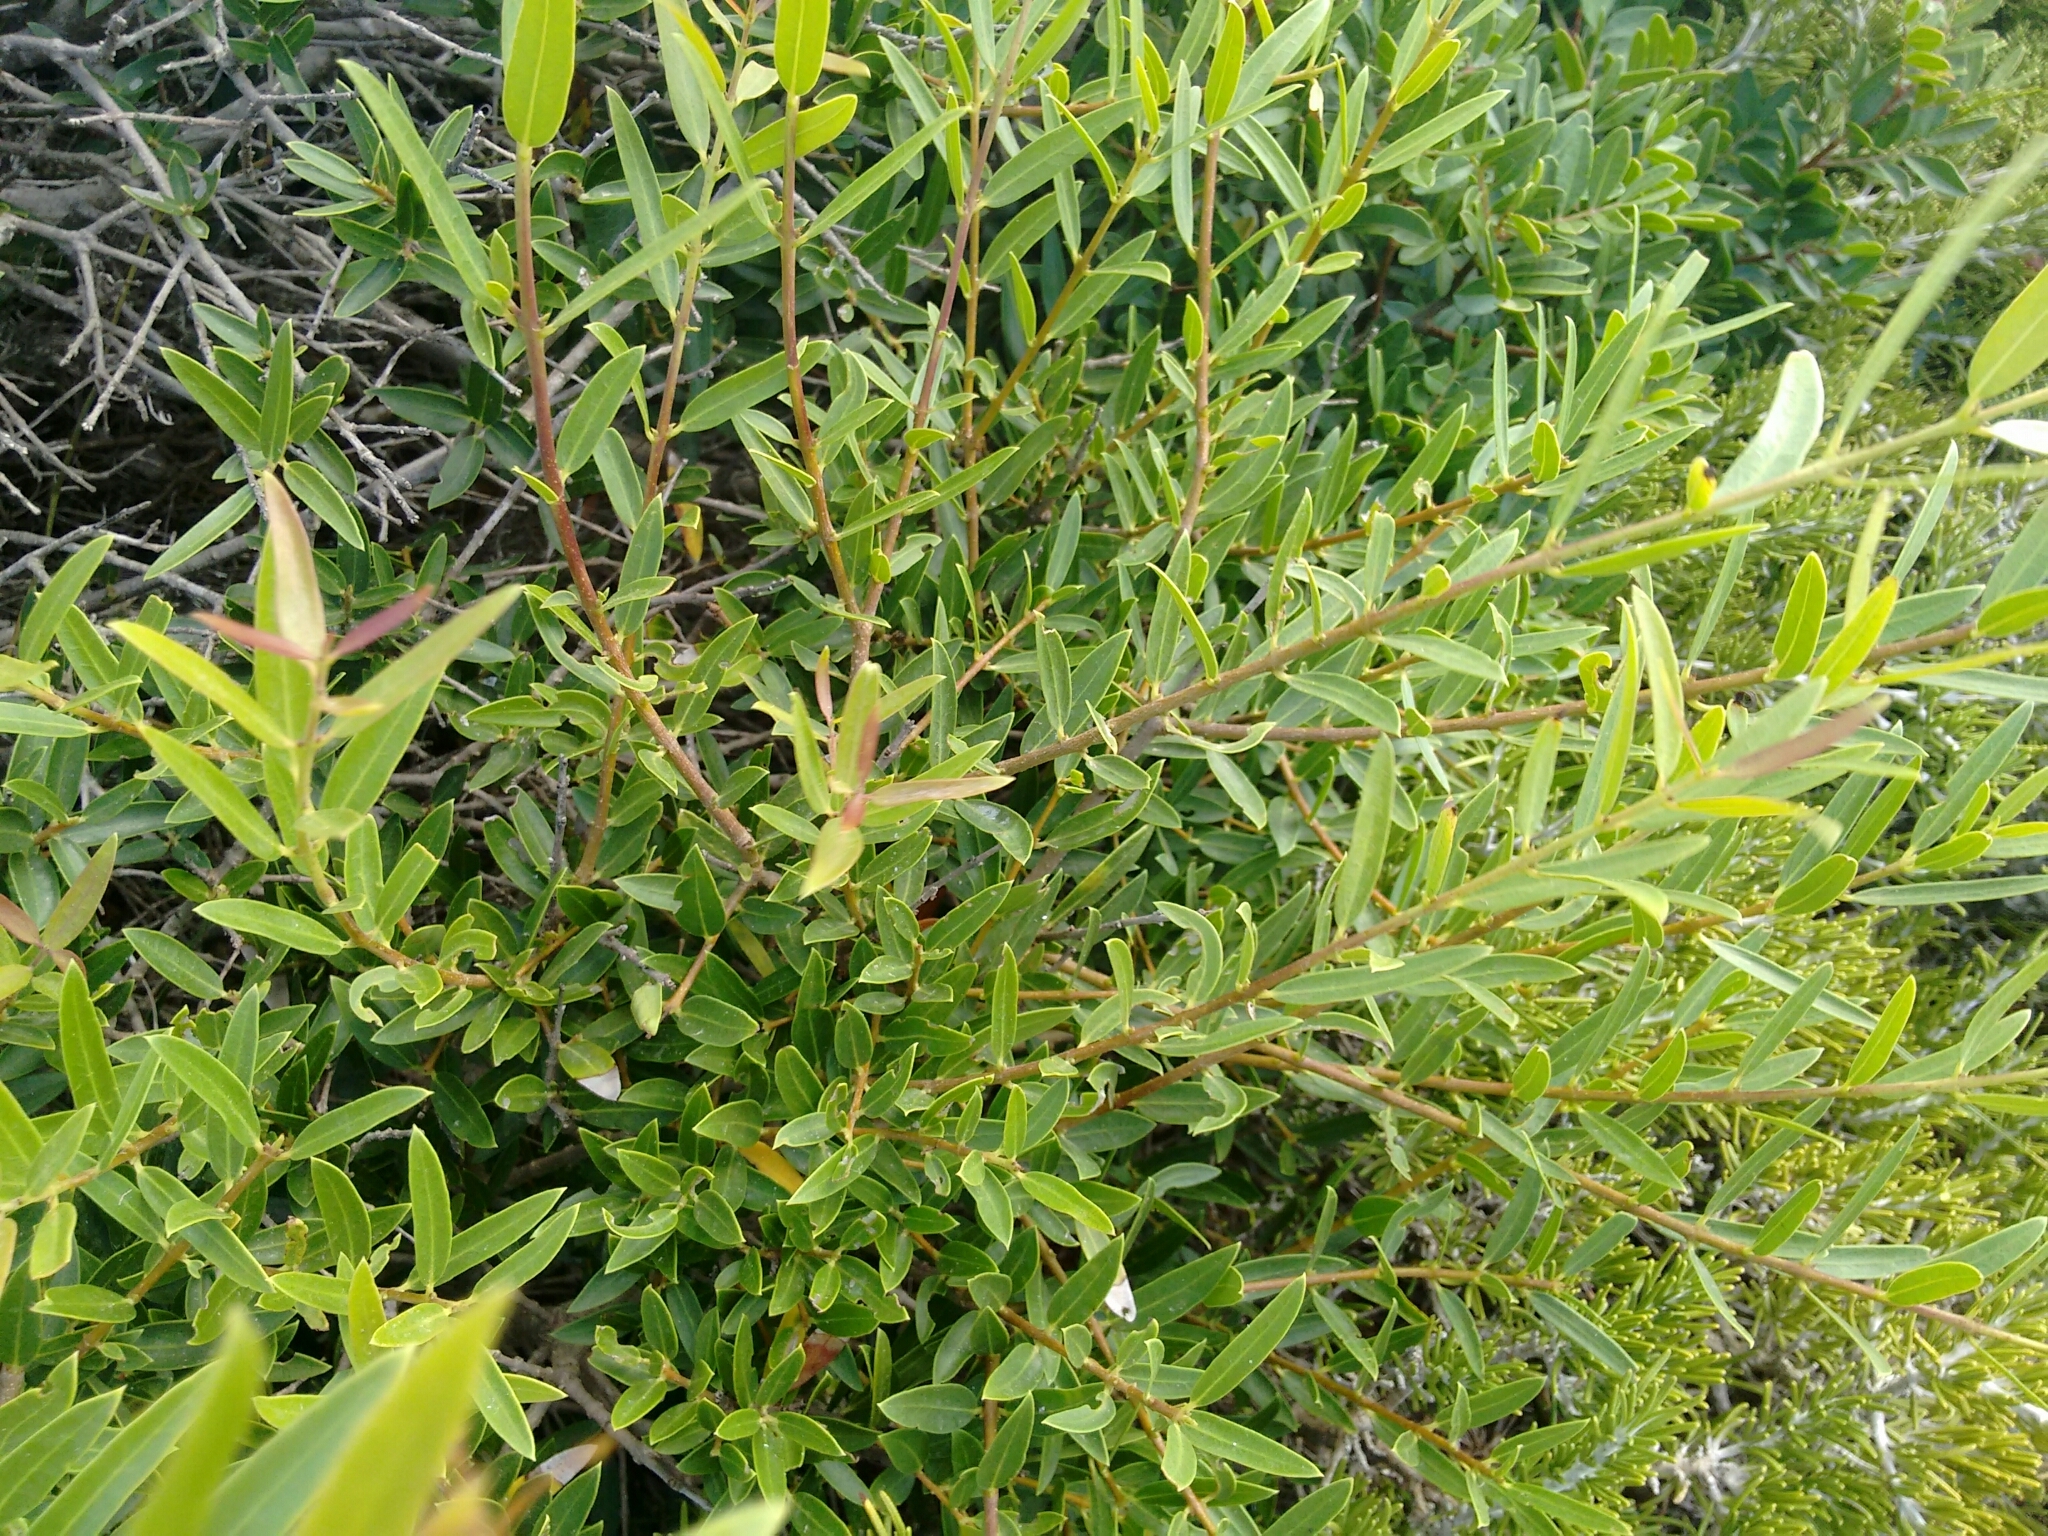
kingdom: Plantae
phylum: Tracheophyta
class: Magnoliopsida
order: Lamiales
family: Oleaceae
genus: Phillyrea
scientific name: Phillyrea angustifolia
